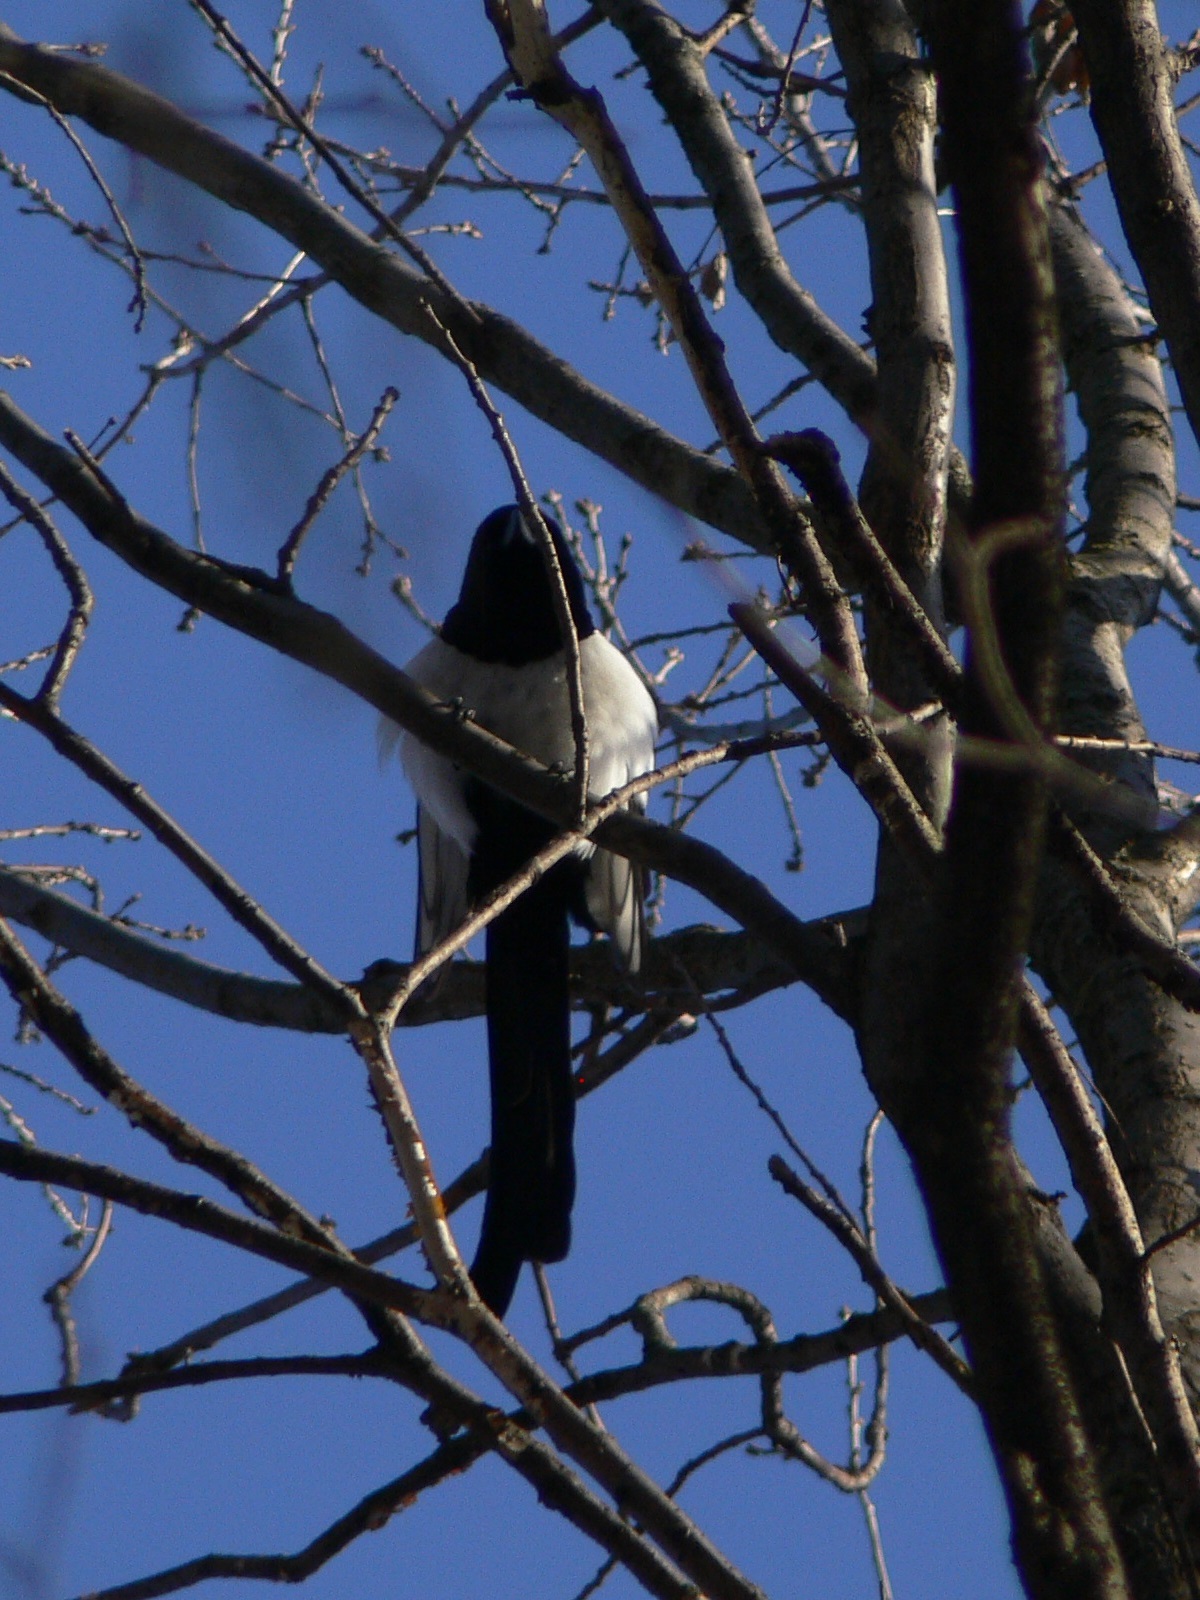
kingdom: Animalia
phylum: Chordata
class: Aves
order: Passeriformes
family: Corvidae
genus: Pica
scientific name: Pica pica
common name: Eurasian magpie
